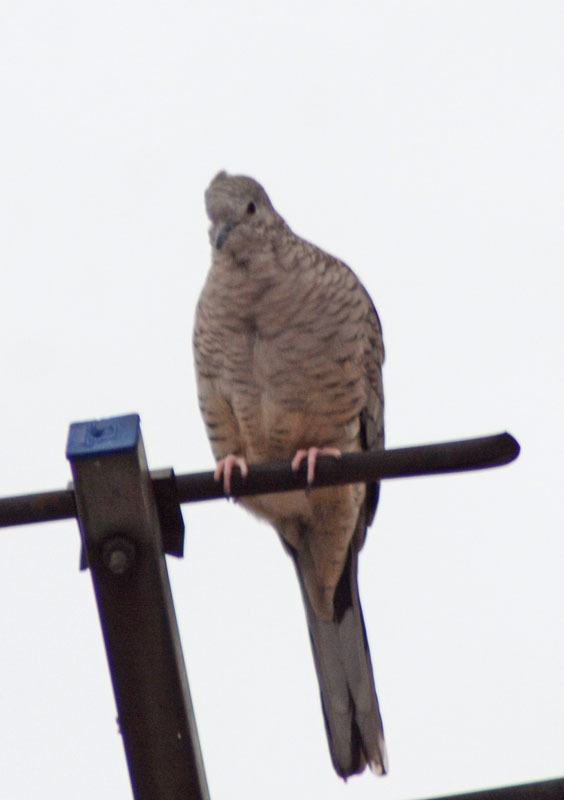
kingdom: Animalia
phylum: Chordata
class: Aves
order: Columbiformes
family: Columbidae
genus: Columbina
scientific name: Columbina inca
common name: Inca dove
